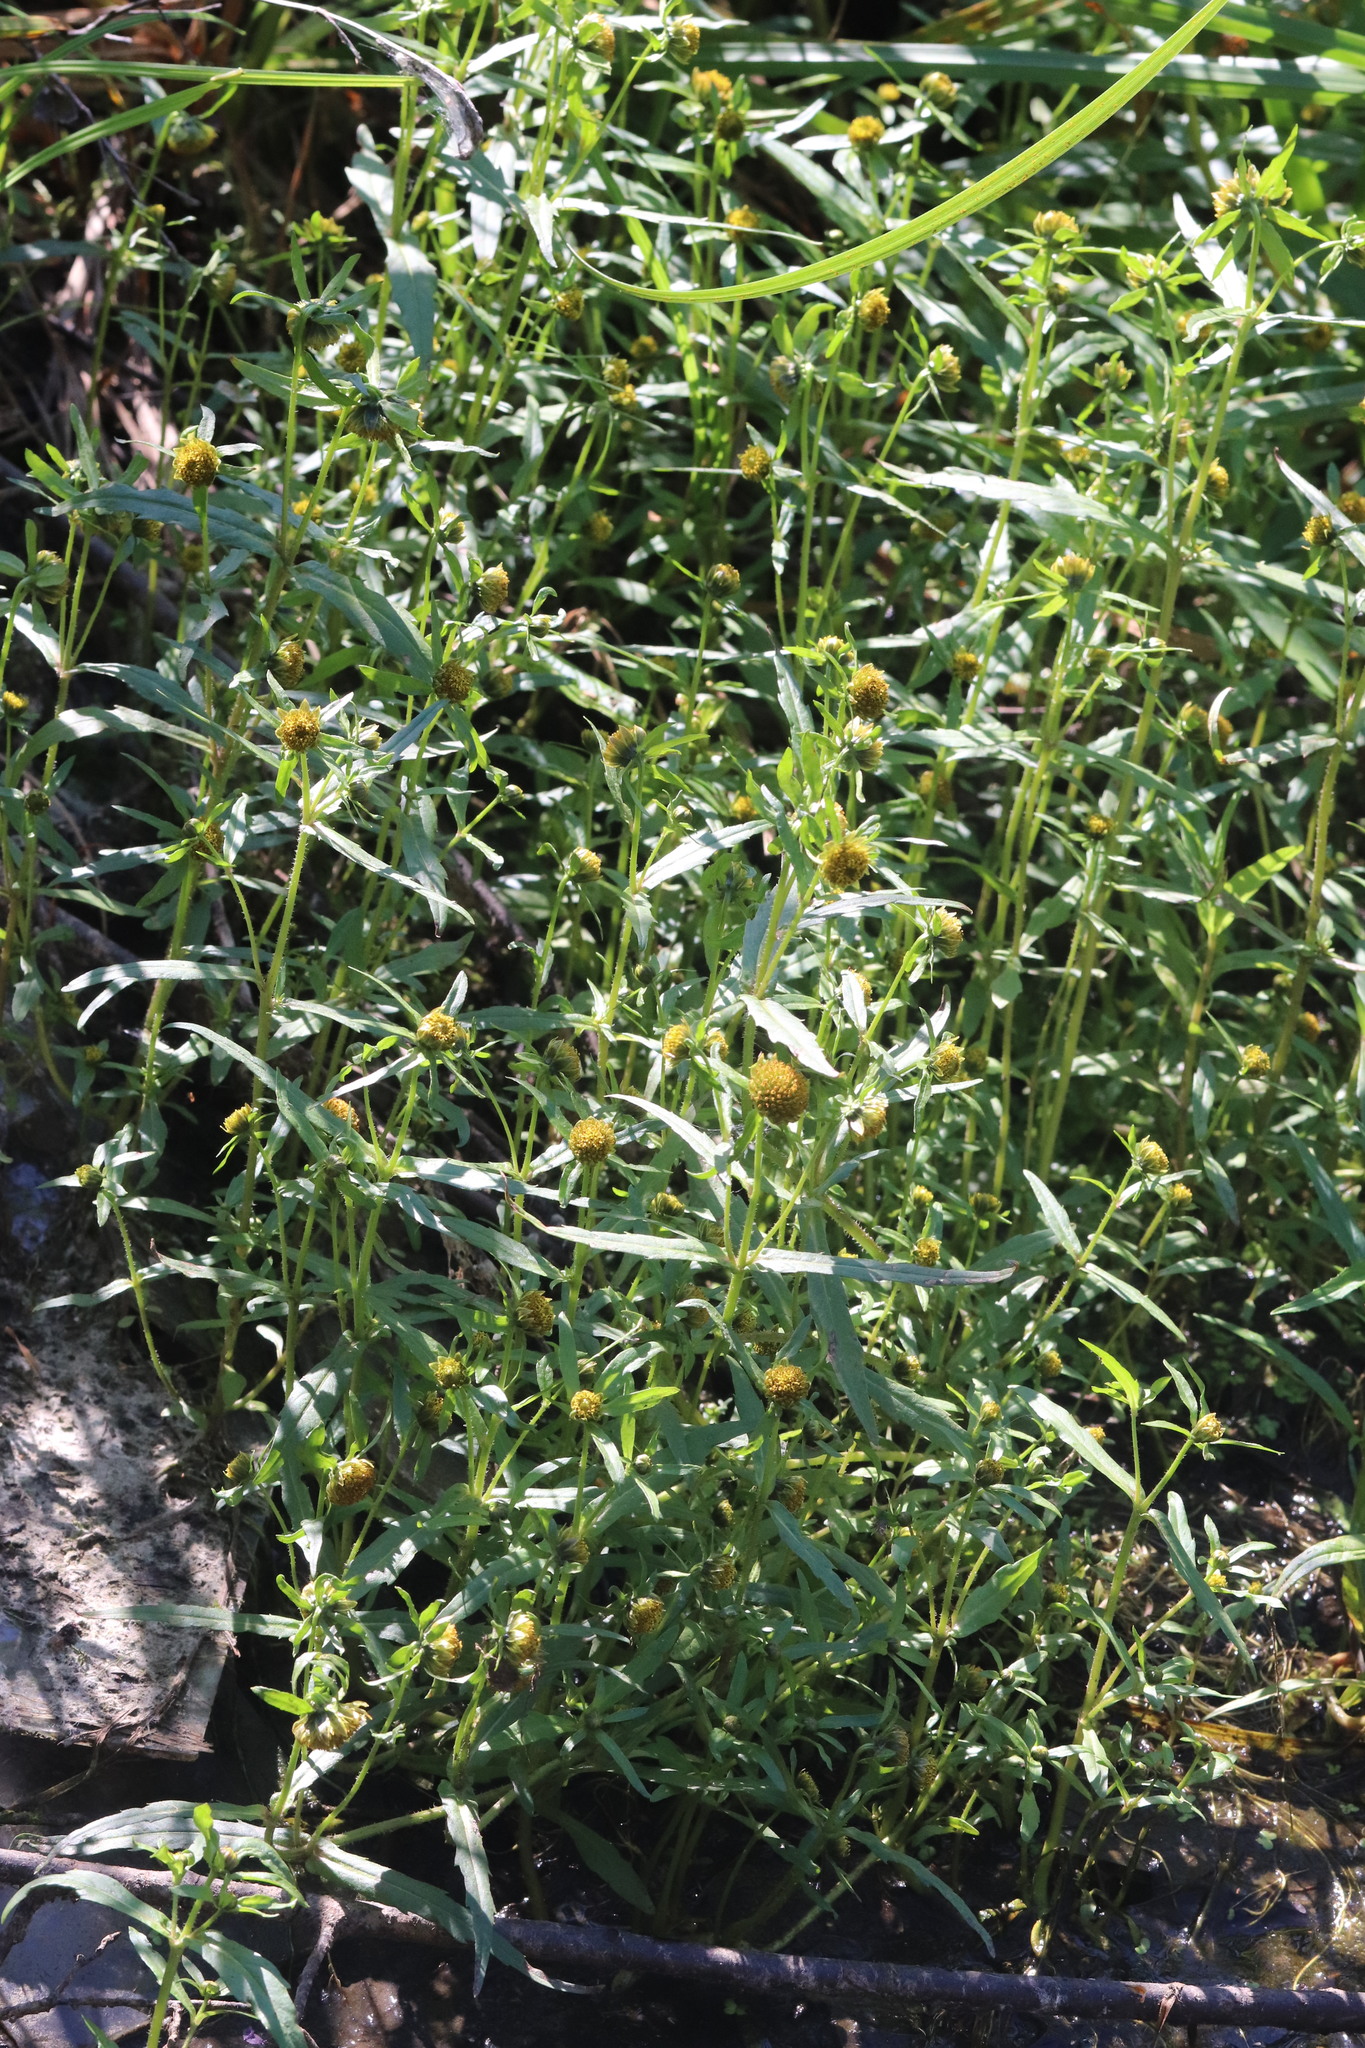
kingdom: Plantae
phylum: Tracheophyta
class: Magnoliopsida
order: Asterales
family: Asteraceae
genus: Bidens
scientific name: Bidens cernua
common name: Nodding bur-marigold
